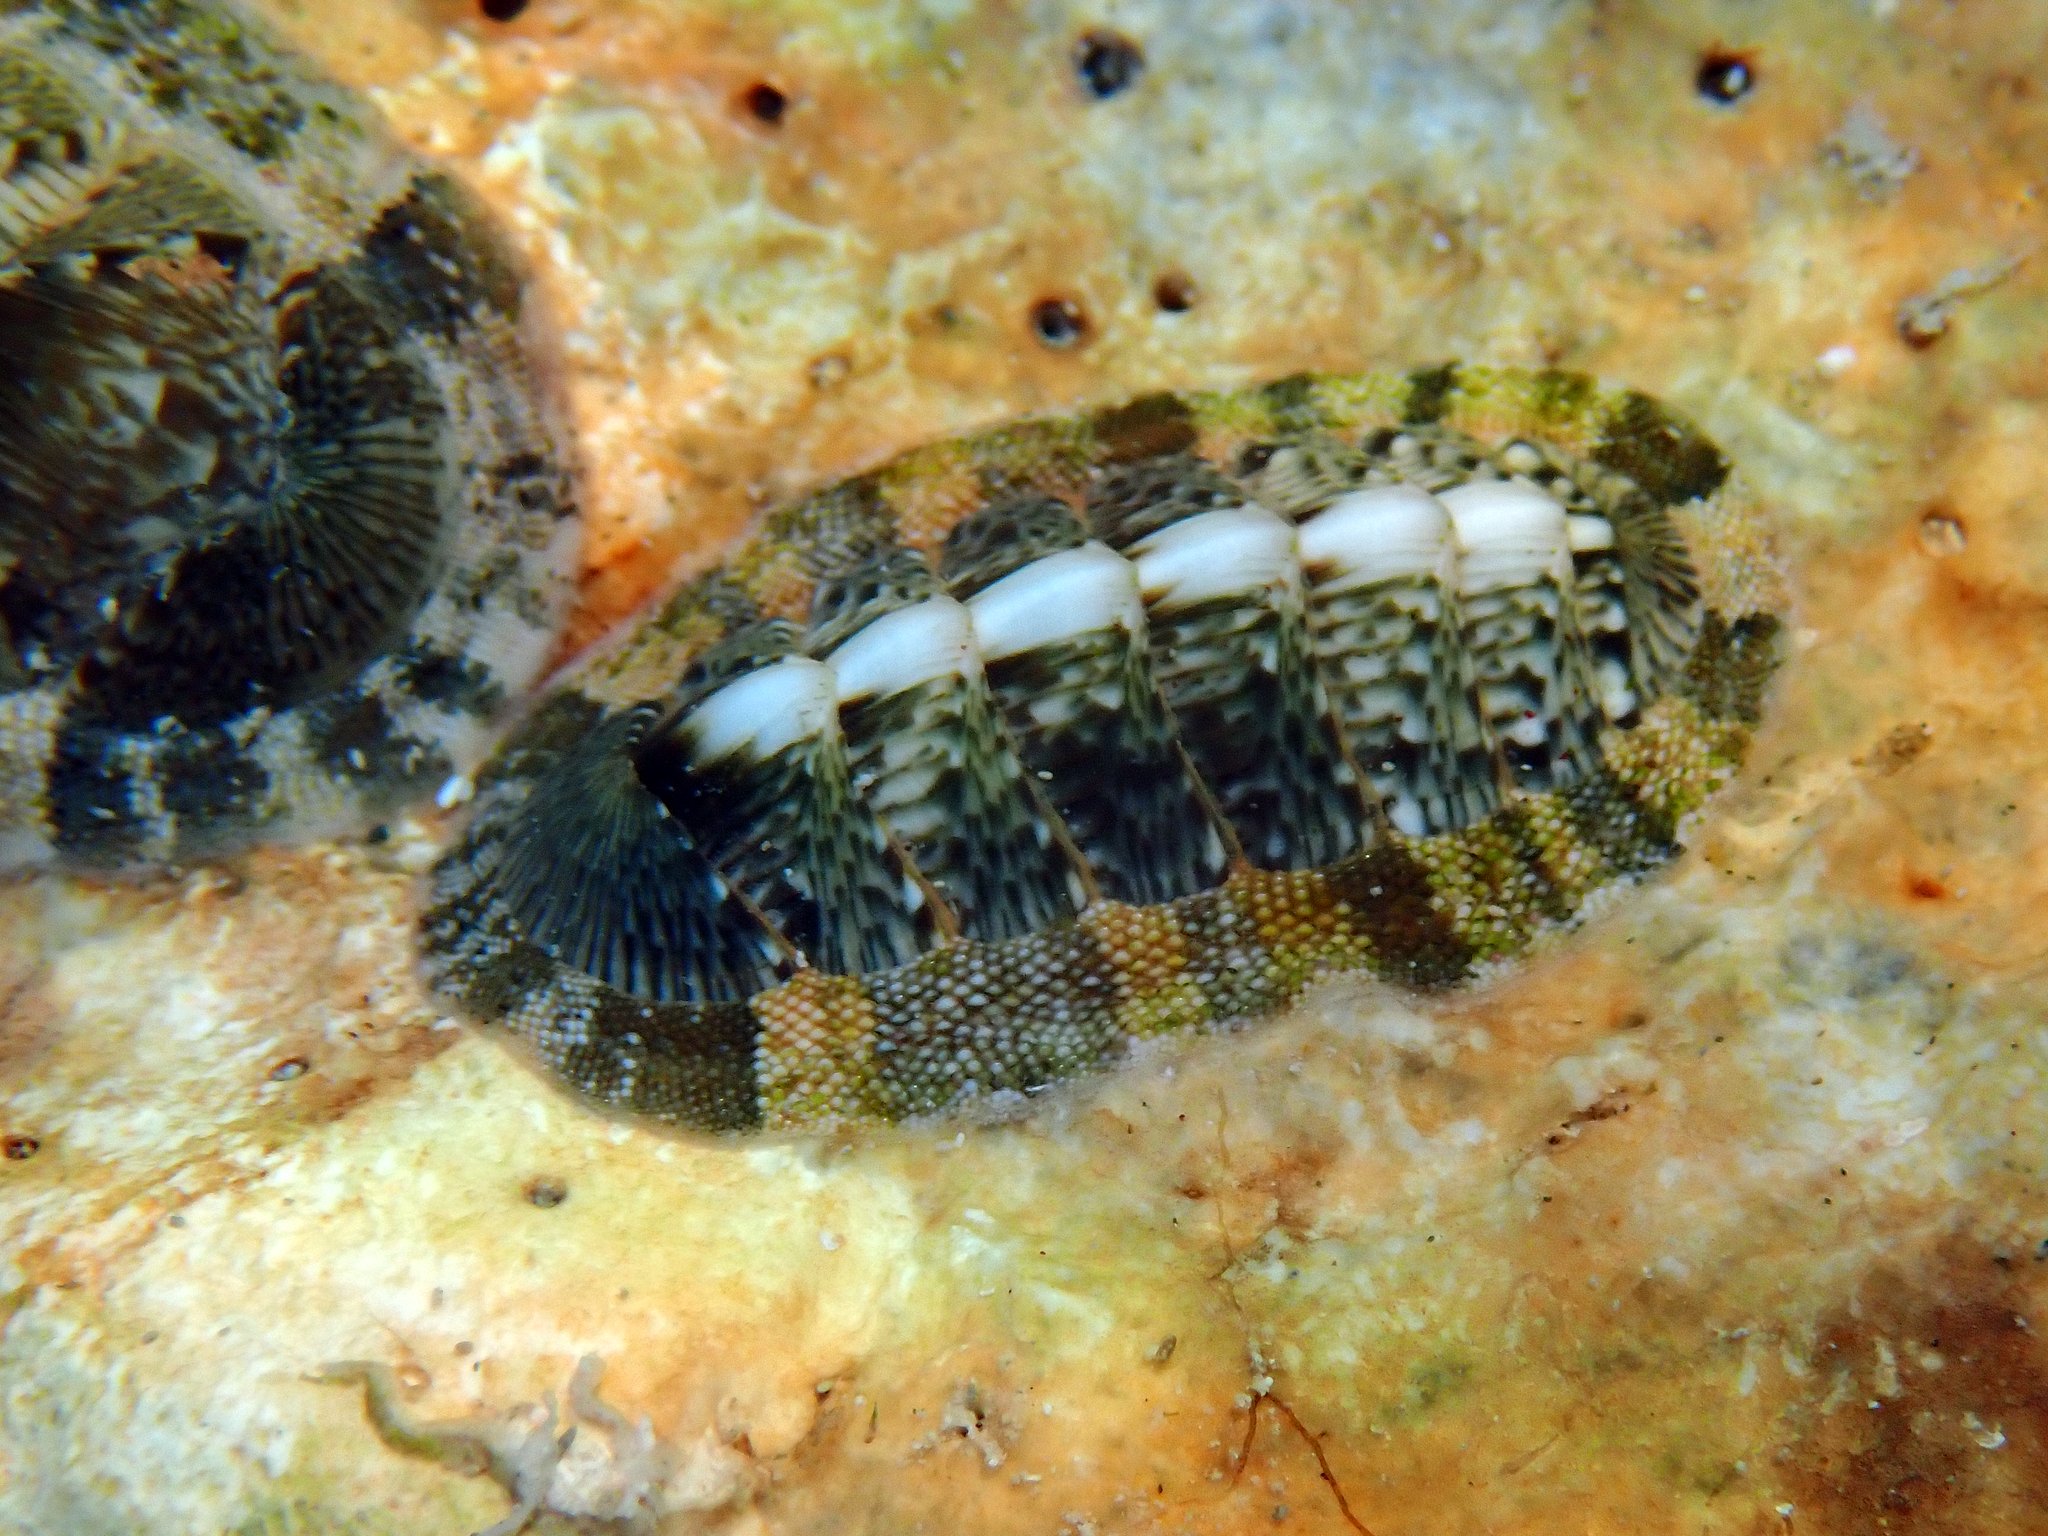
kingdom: Animalia
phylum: Mollusca
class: Polyplacophora
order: Chitonida
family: Chitonidae
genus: Rhyssoplax
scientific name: Rhyssoplax olivacea
